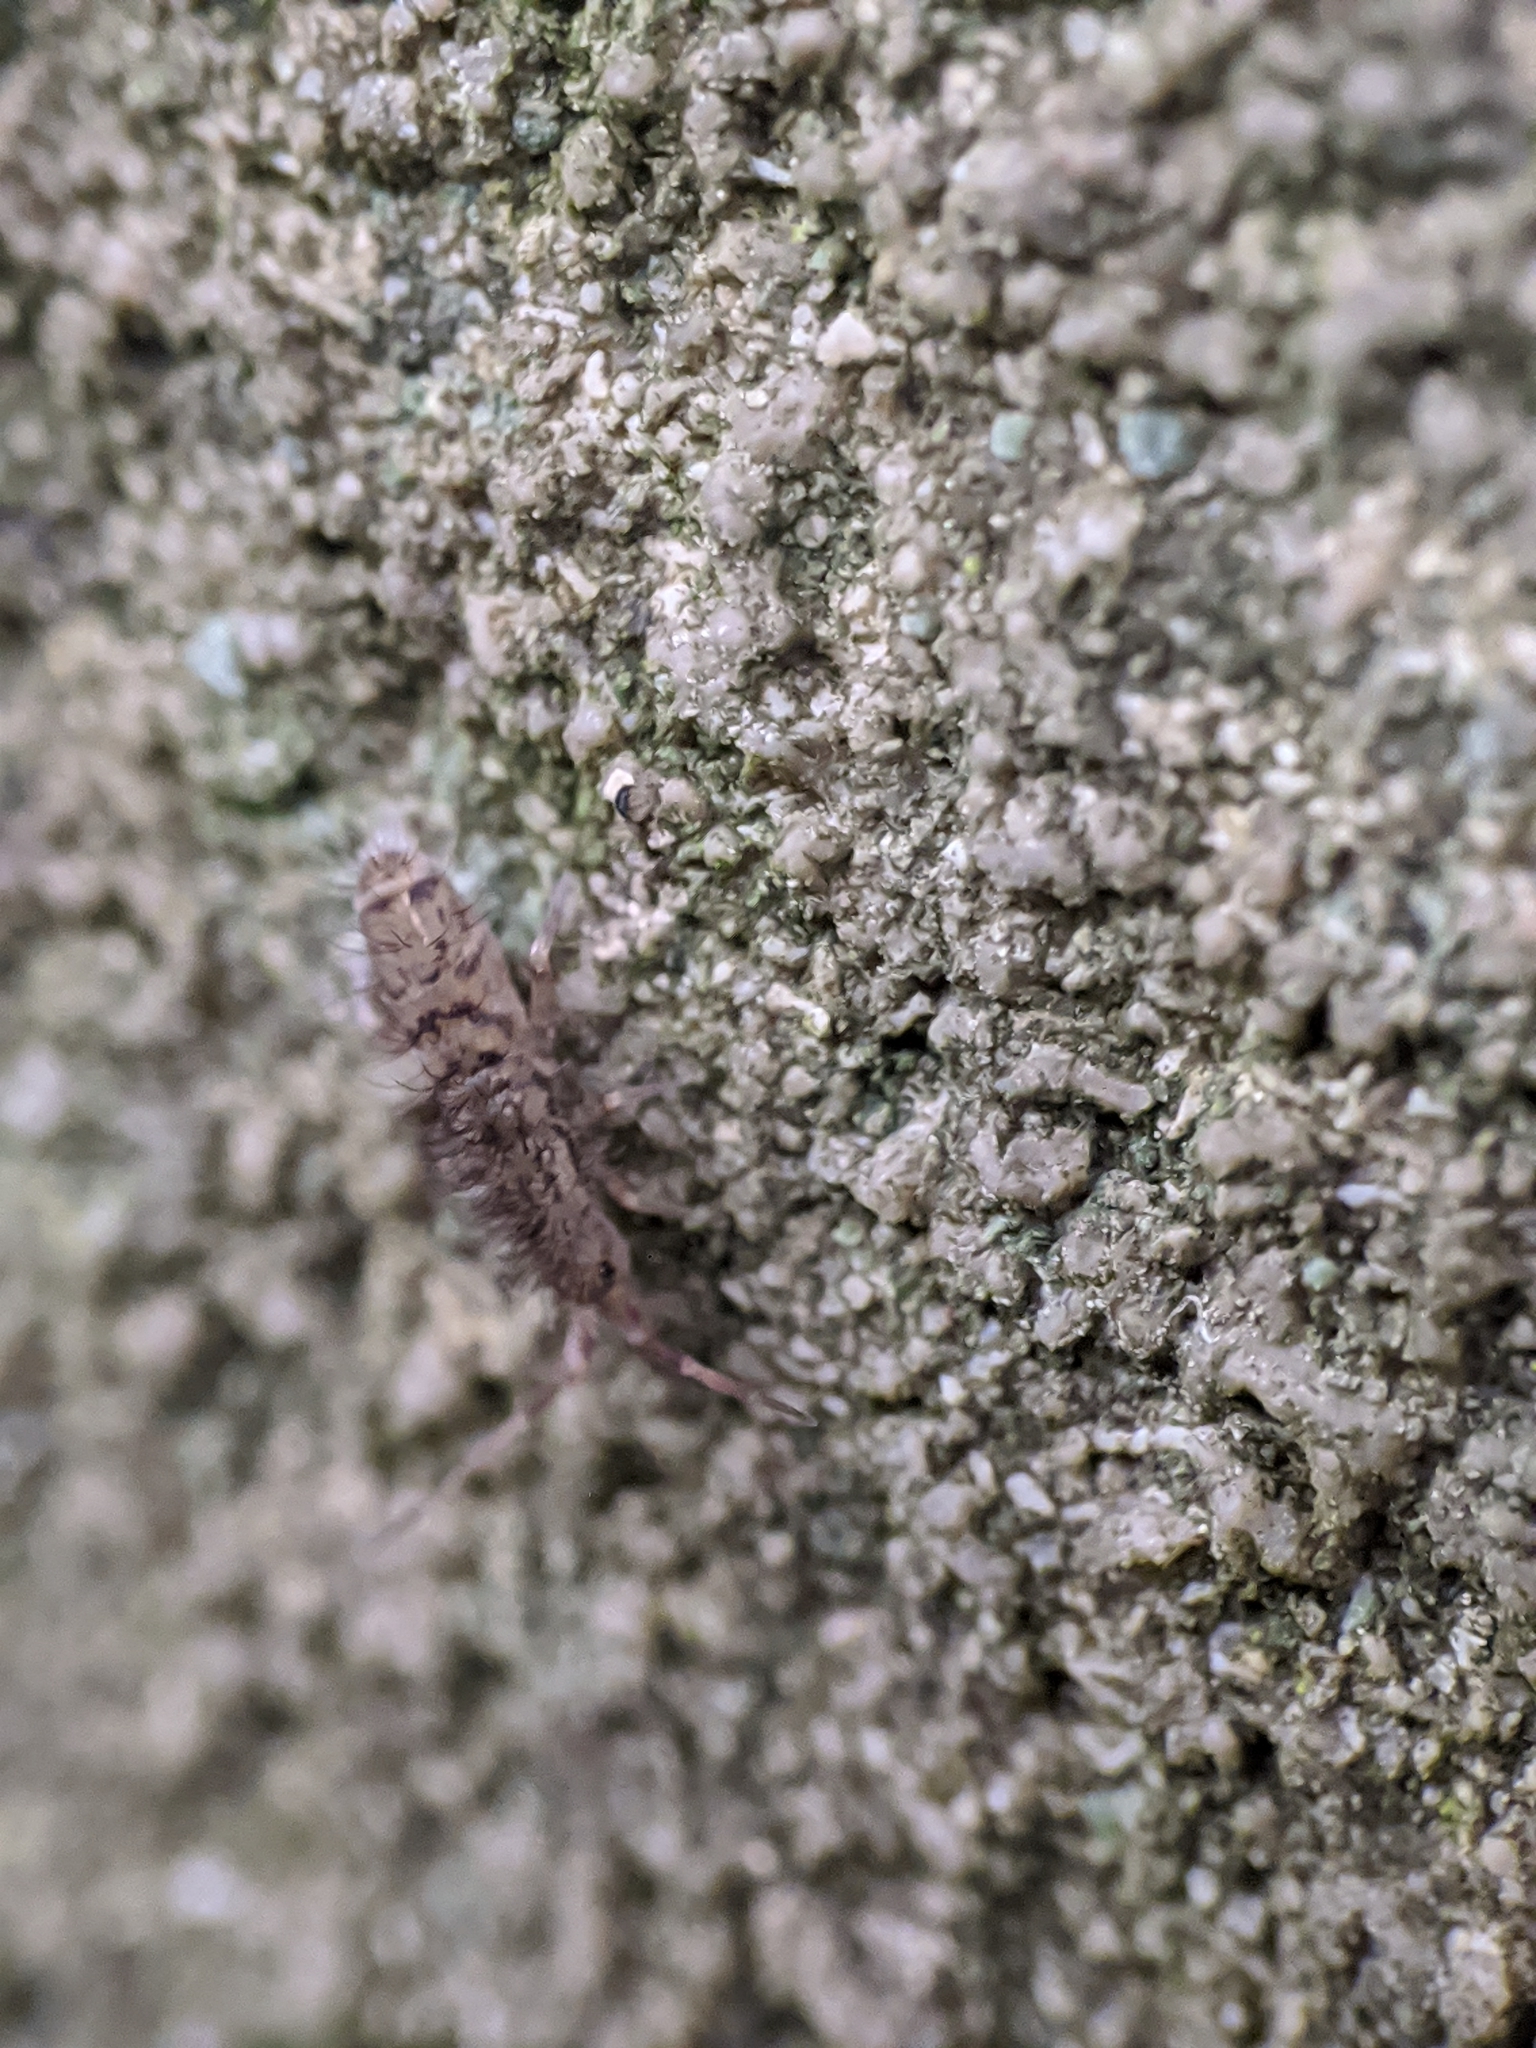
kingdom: Animalia
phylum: Arthropoda
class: Collembola
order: Entomobryomorpha
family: Orchesellidae
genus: Orchesella
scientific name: Orchesella villosa
